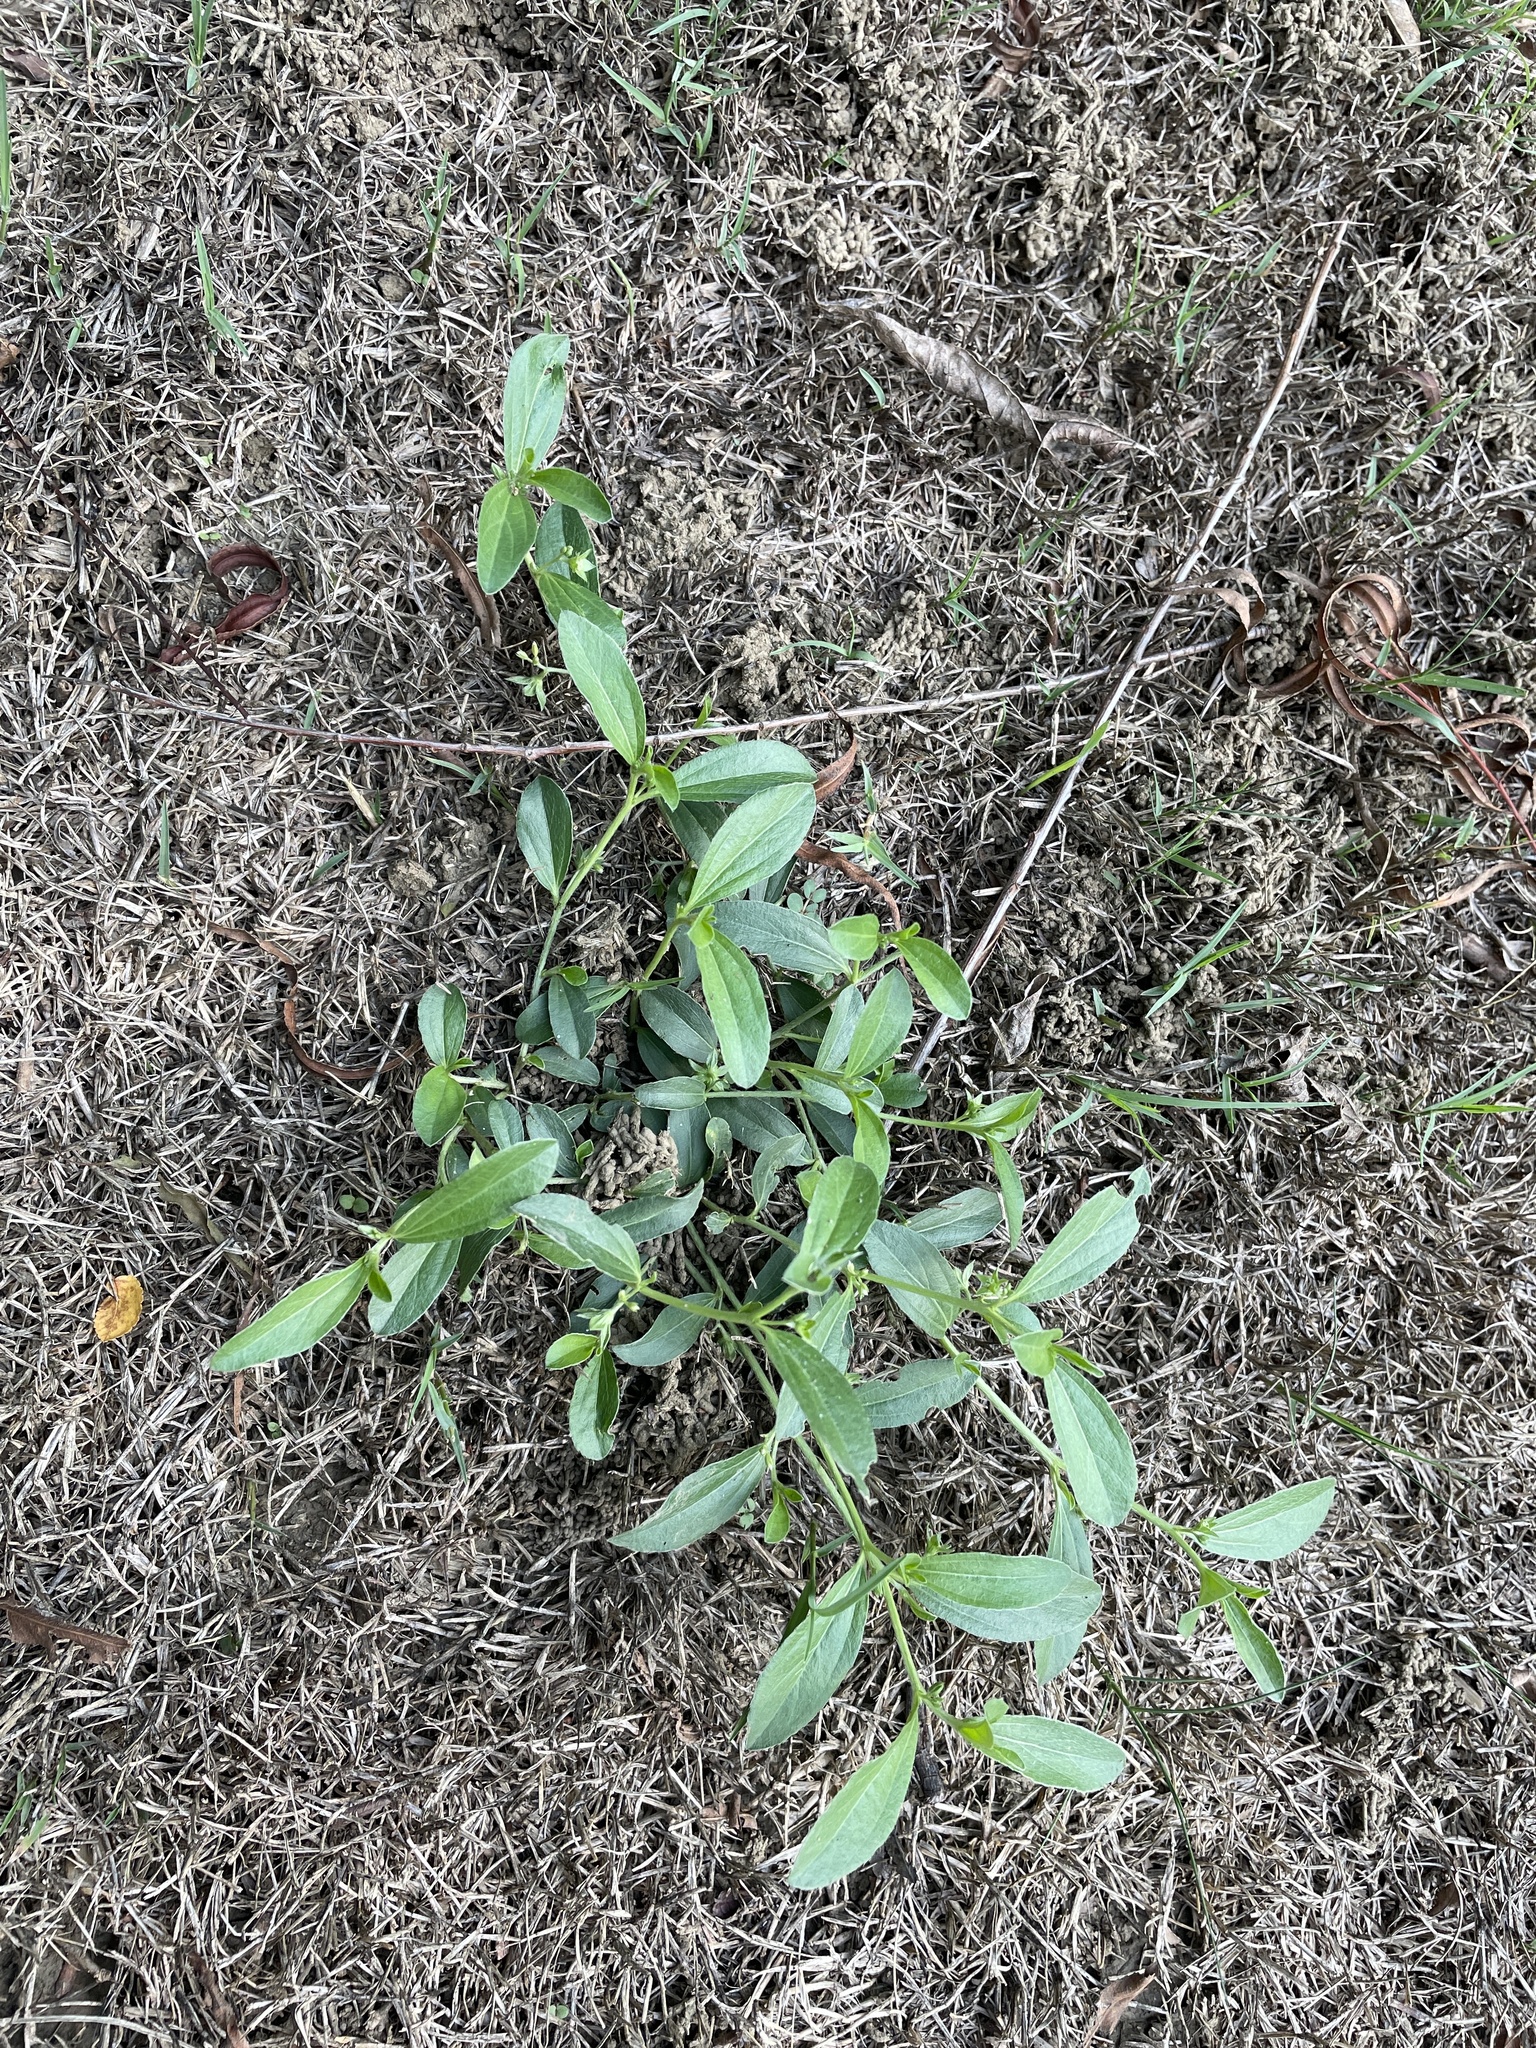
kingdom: Plantae
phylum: Tracheophyta
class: Magnoliopsida
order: Malpighiales
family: Euphorbiaceae
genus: Ditaxis
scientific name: Ditaxis humilis
